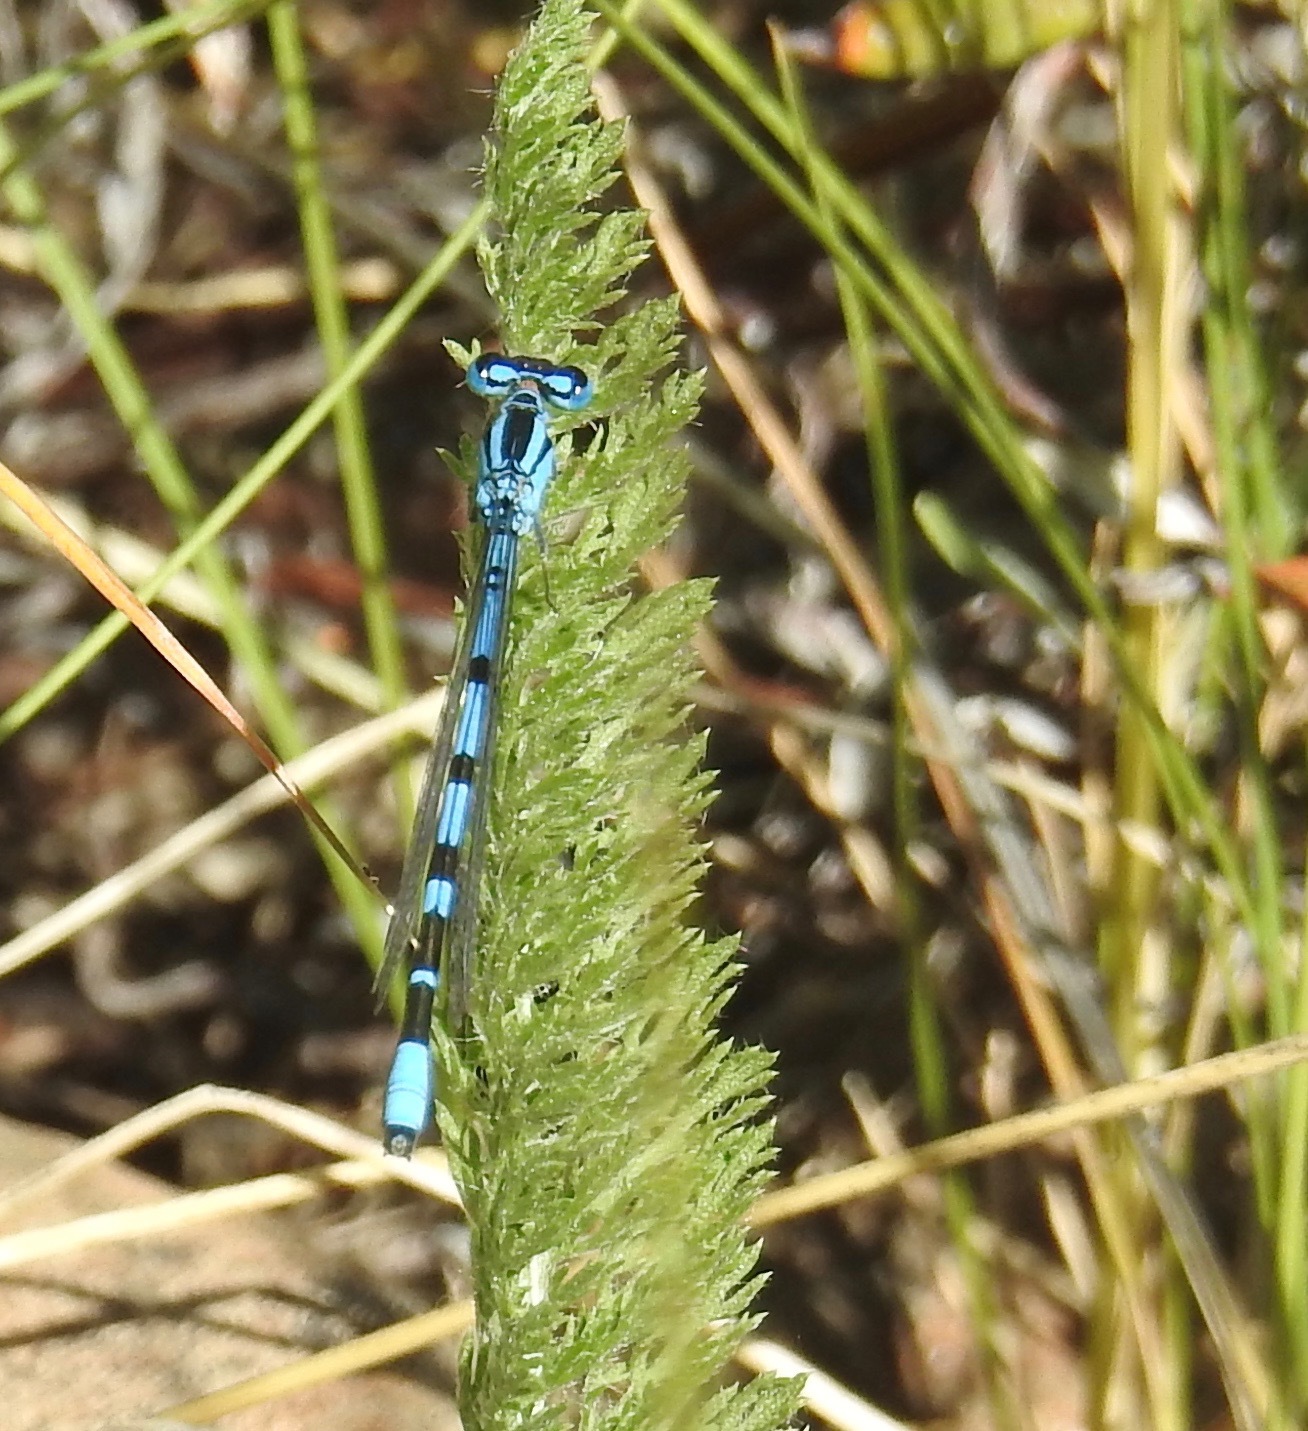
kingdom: Animalia
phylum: Arthropoda
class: Insecta
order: Odonata
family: Coenagrionidae
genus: Enallagma
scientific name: Enallagma annexum
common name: Northern bluet
